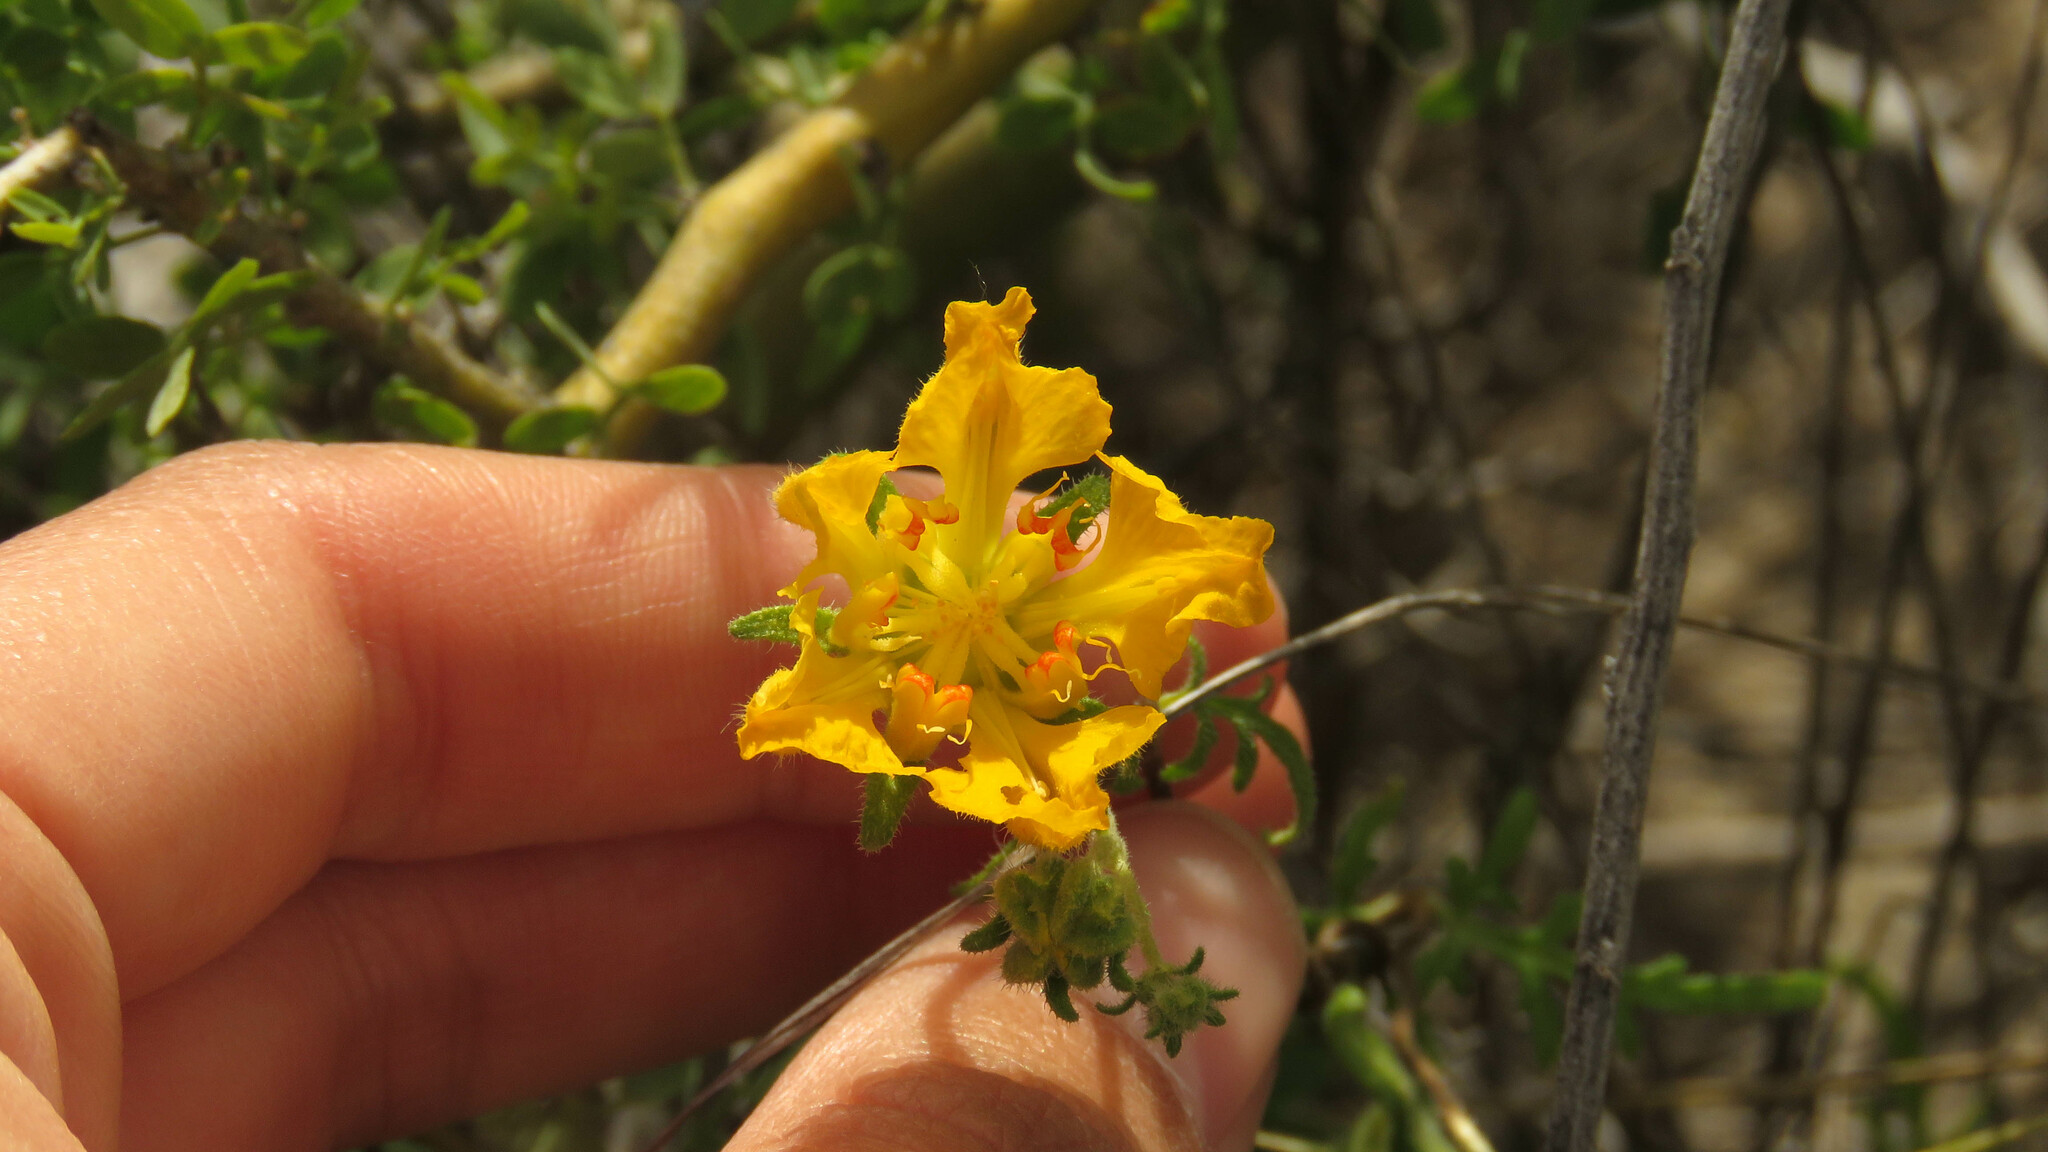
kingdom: Plantae
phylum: Tracheophyta
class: Magnoliopsida
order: Cornales
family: Loasaceae
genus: Pinnasa
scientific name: Pinnasa bergii
